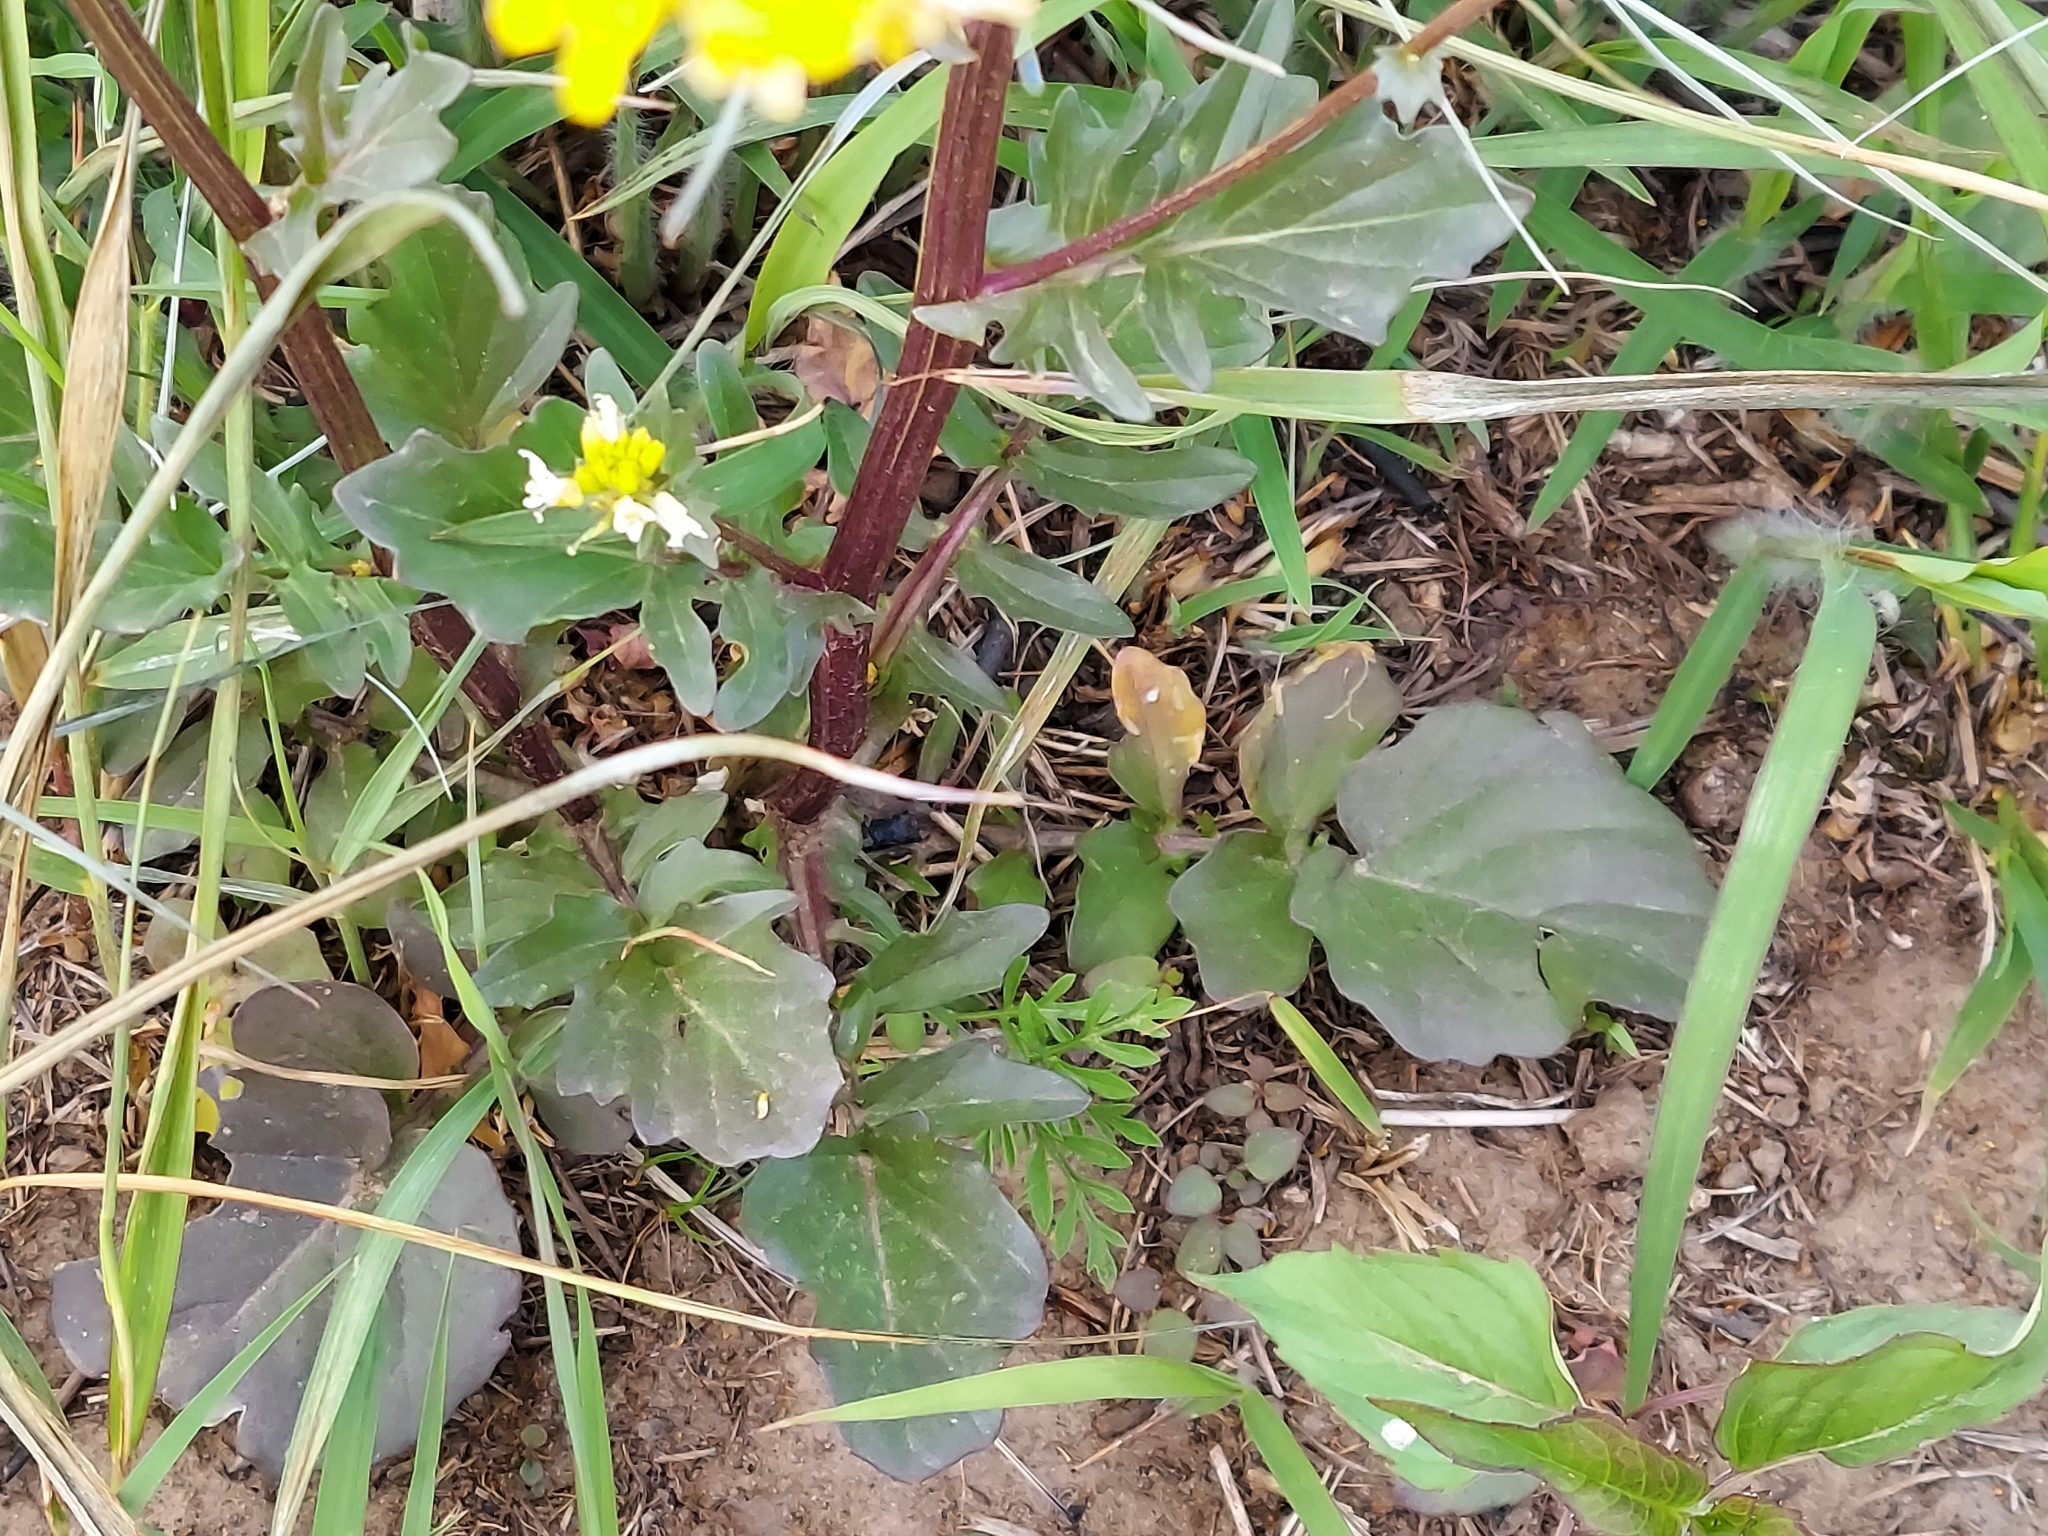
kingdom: Plantae
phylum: Tracheophyta
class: Magnoliopsida
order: Brassicales
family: Brassicaceae
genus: Barbarea
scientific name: Barbarea vulgaris
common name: Cressy-greens
